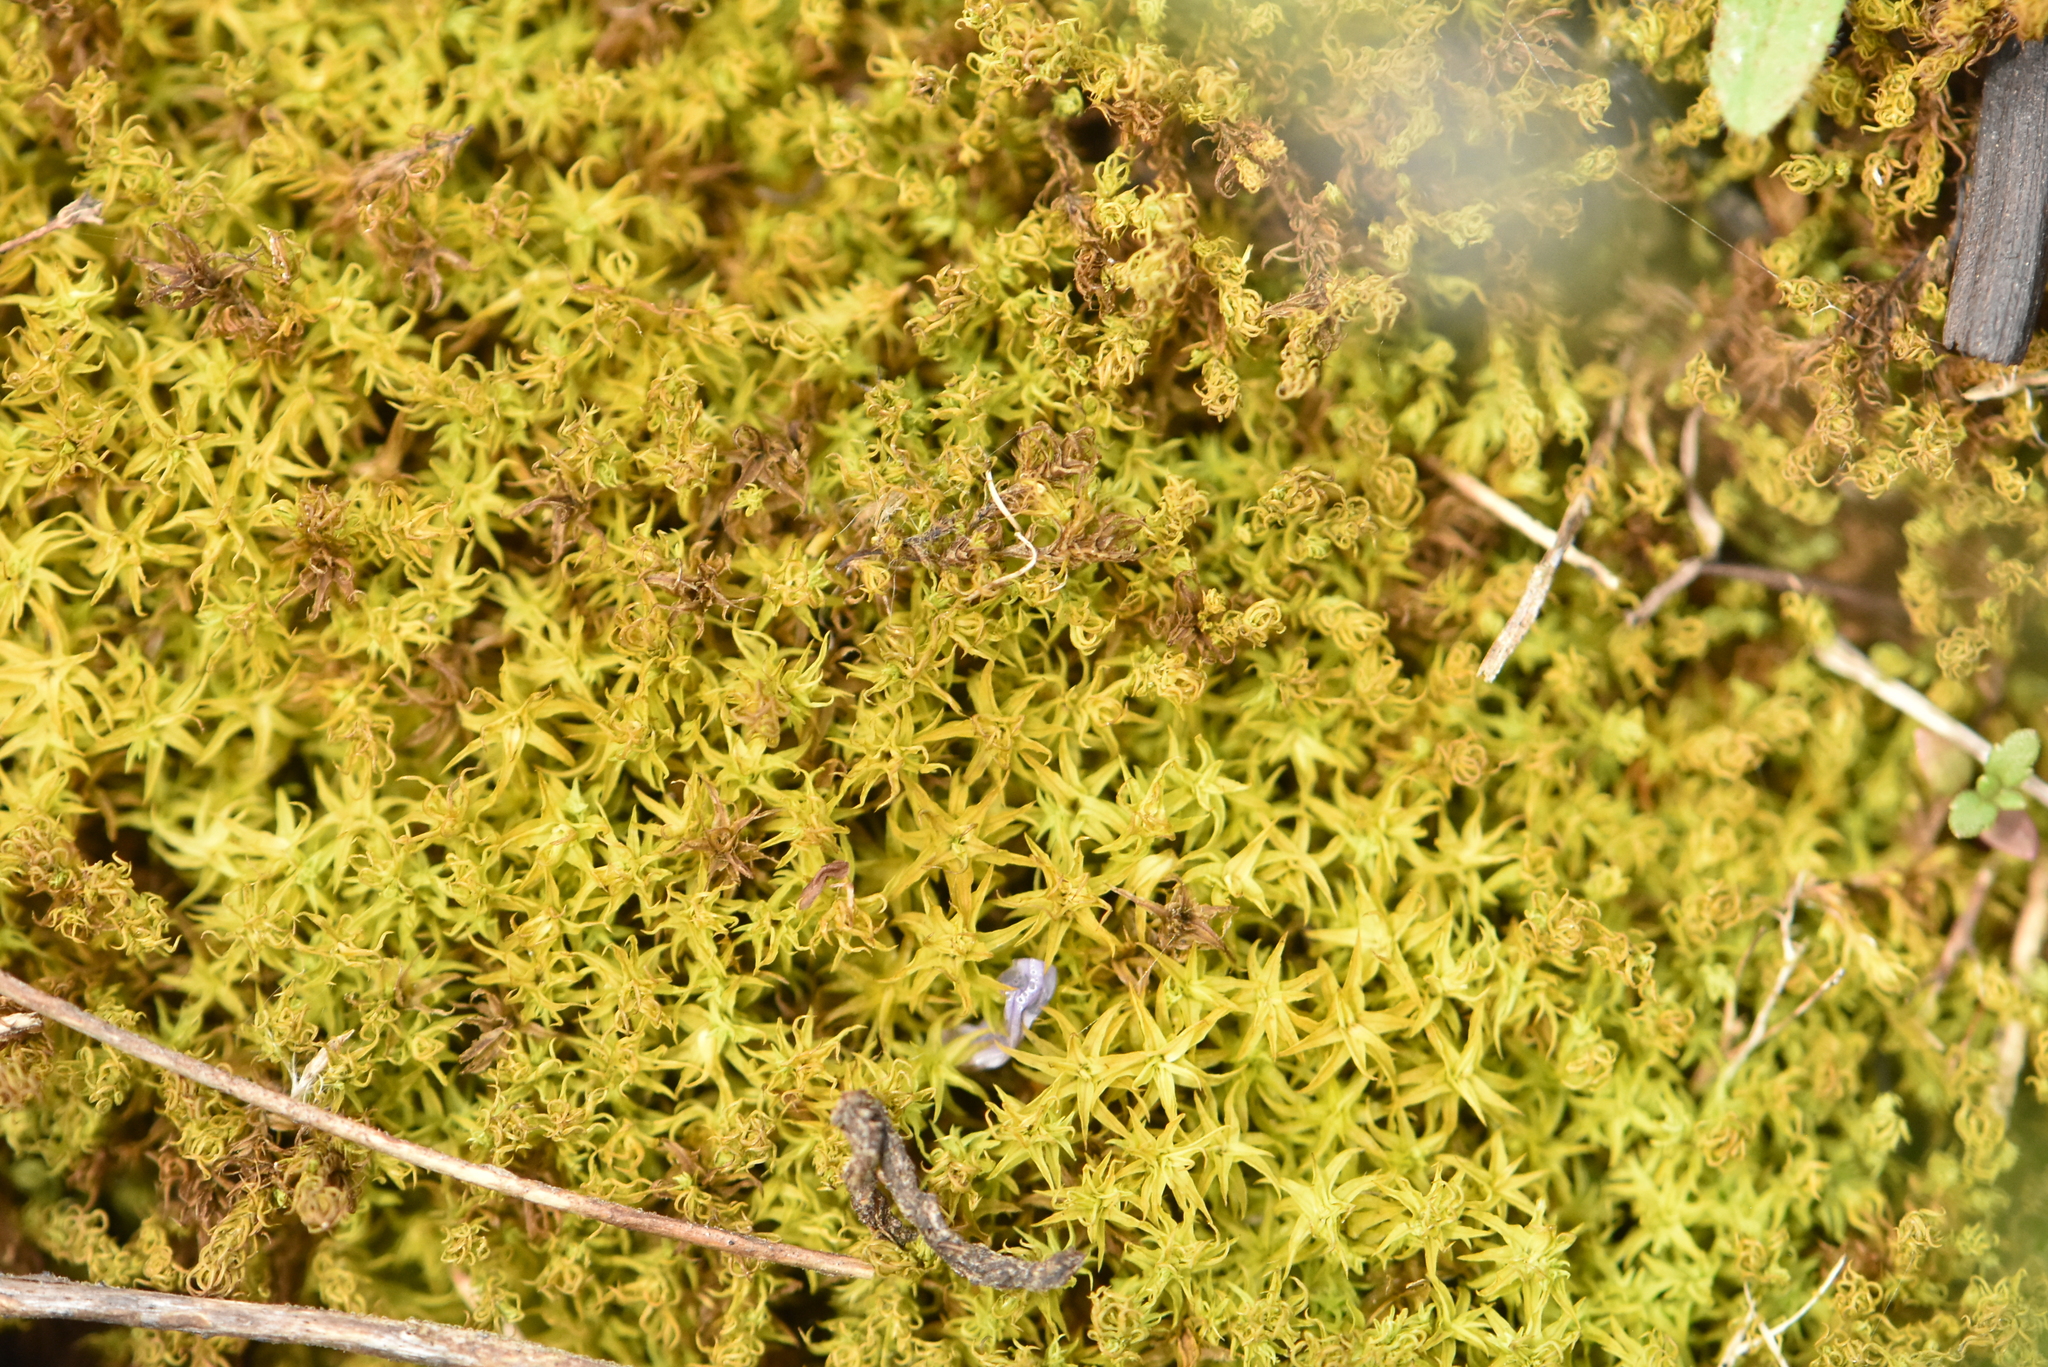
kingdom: Plantae
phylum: Bryophyta
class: Bryopsida
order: Pottiales
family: Pottiaceae
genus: Pleurochaete
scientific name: Pleurochaete squarrosa
